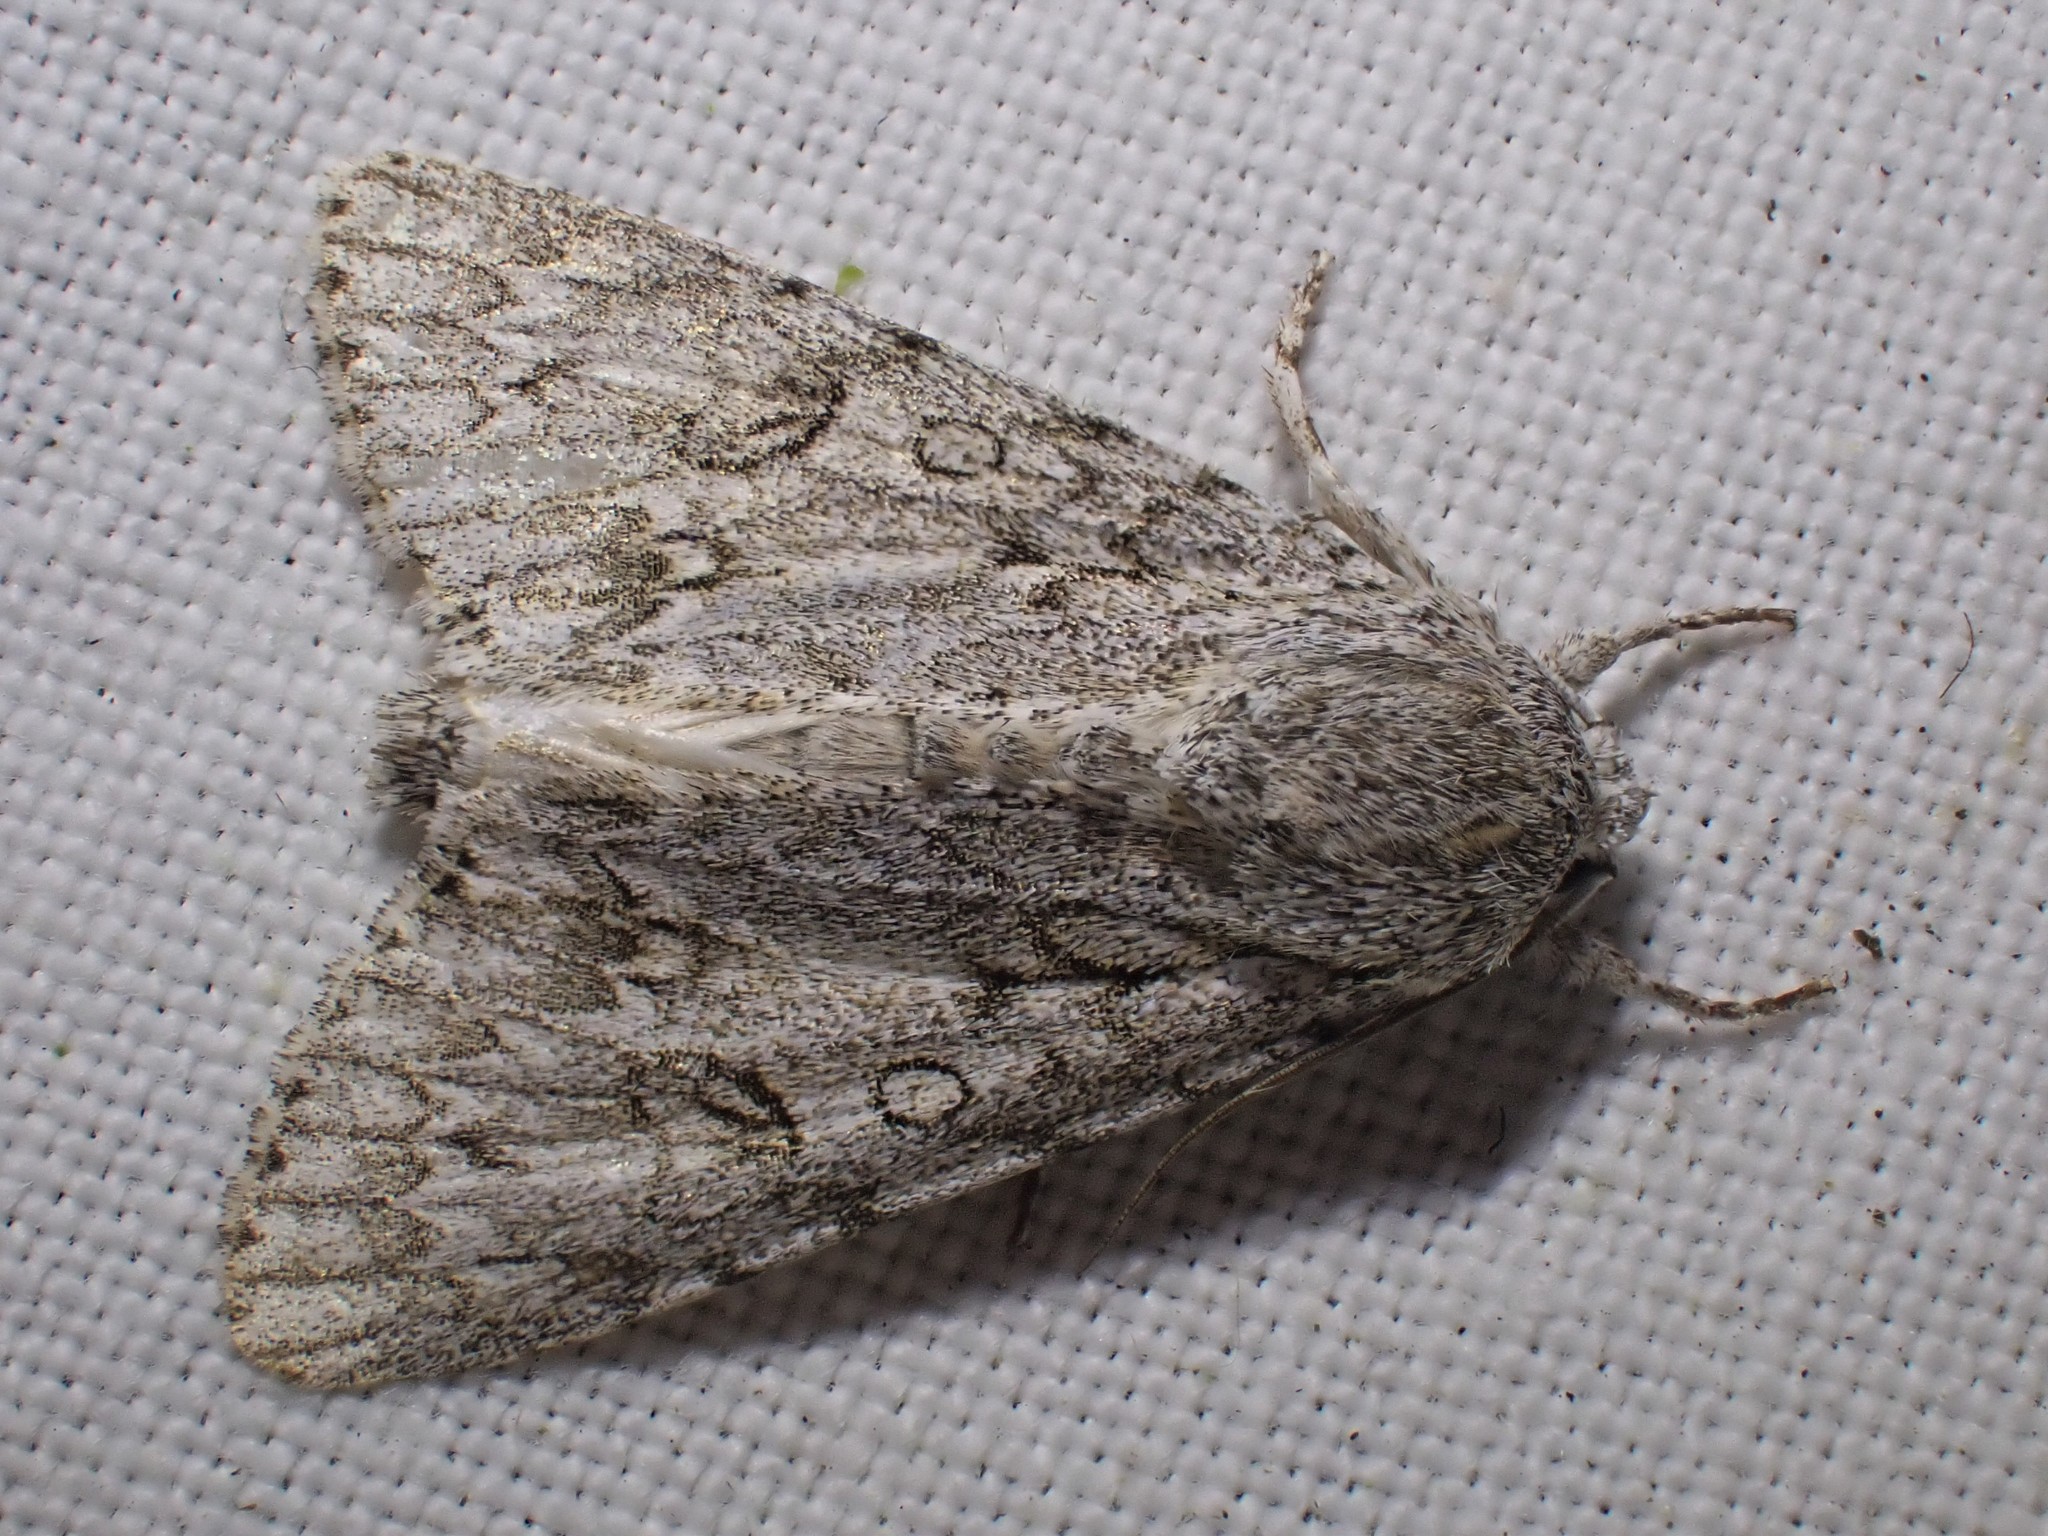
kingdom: Animalia
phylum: Arthropoda
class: Insecta
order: Lepidoptera
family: Noctuidae
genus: Acronicta
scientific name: Acronicta aceris
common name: Sycamore
